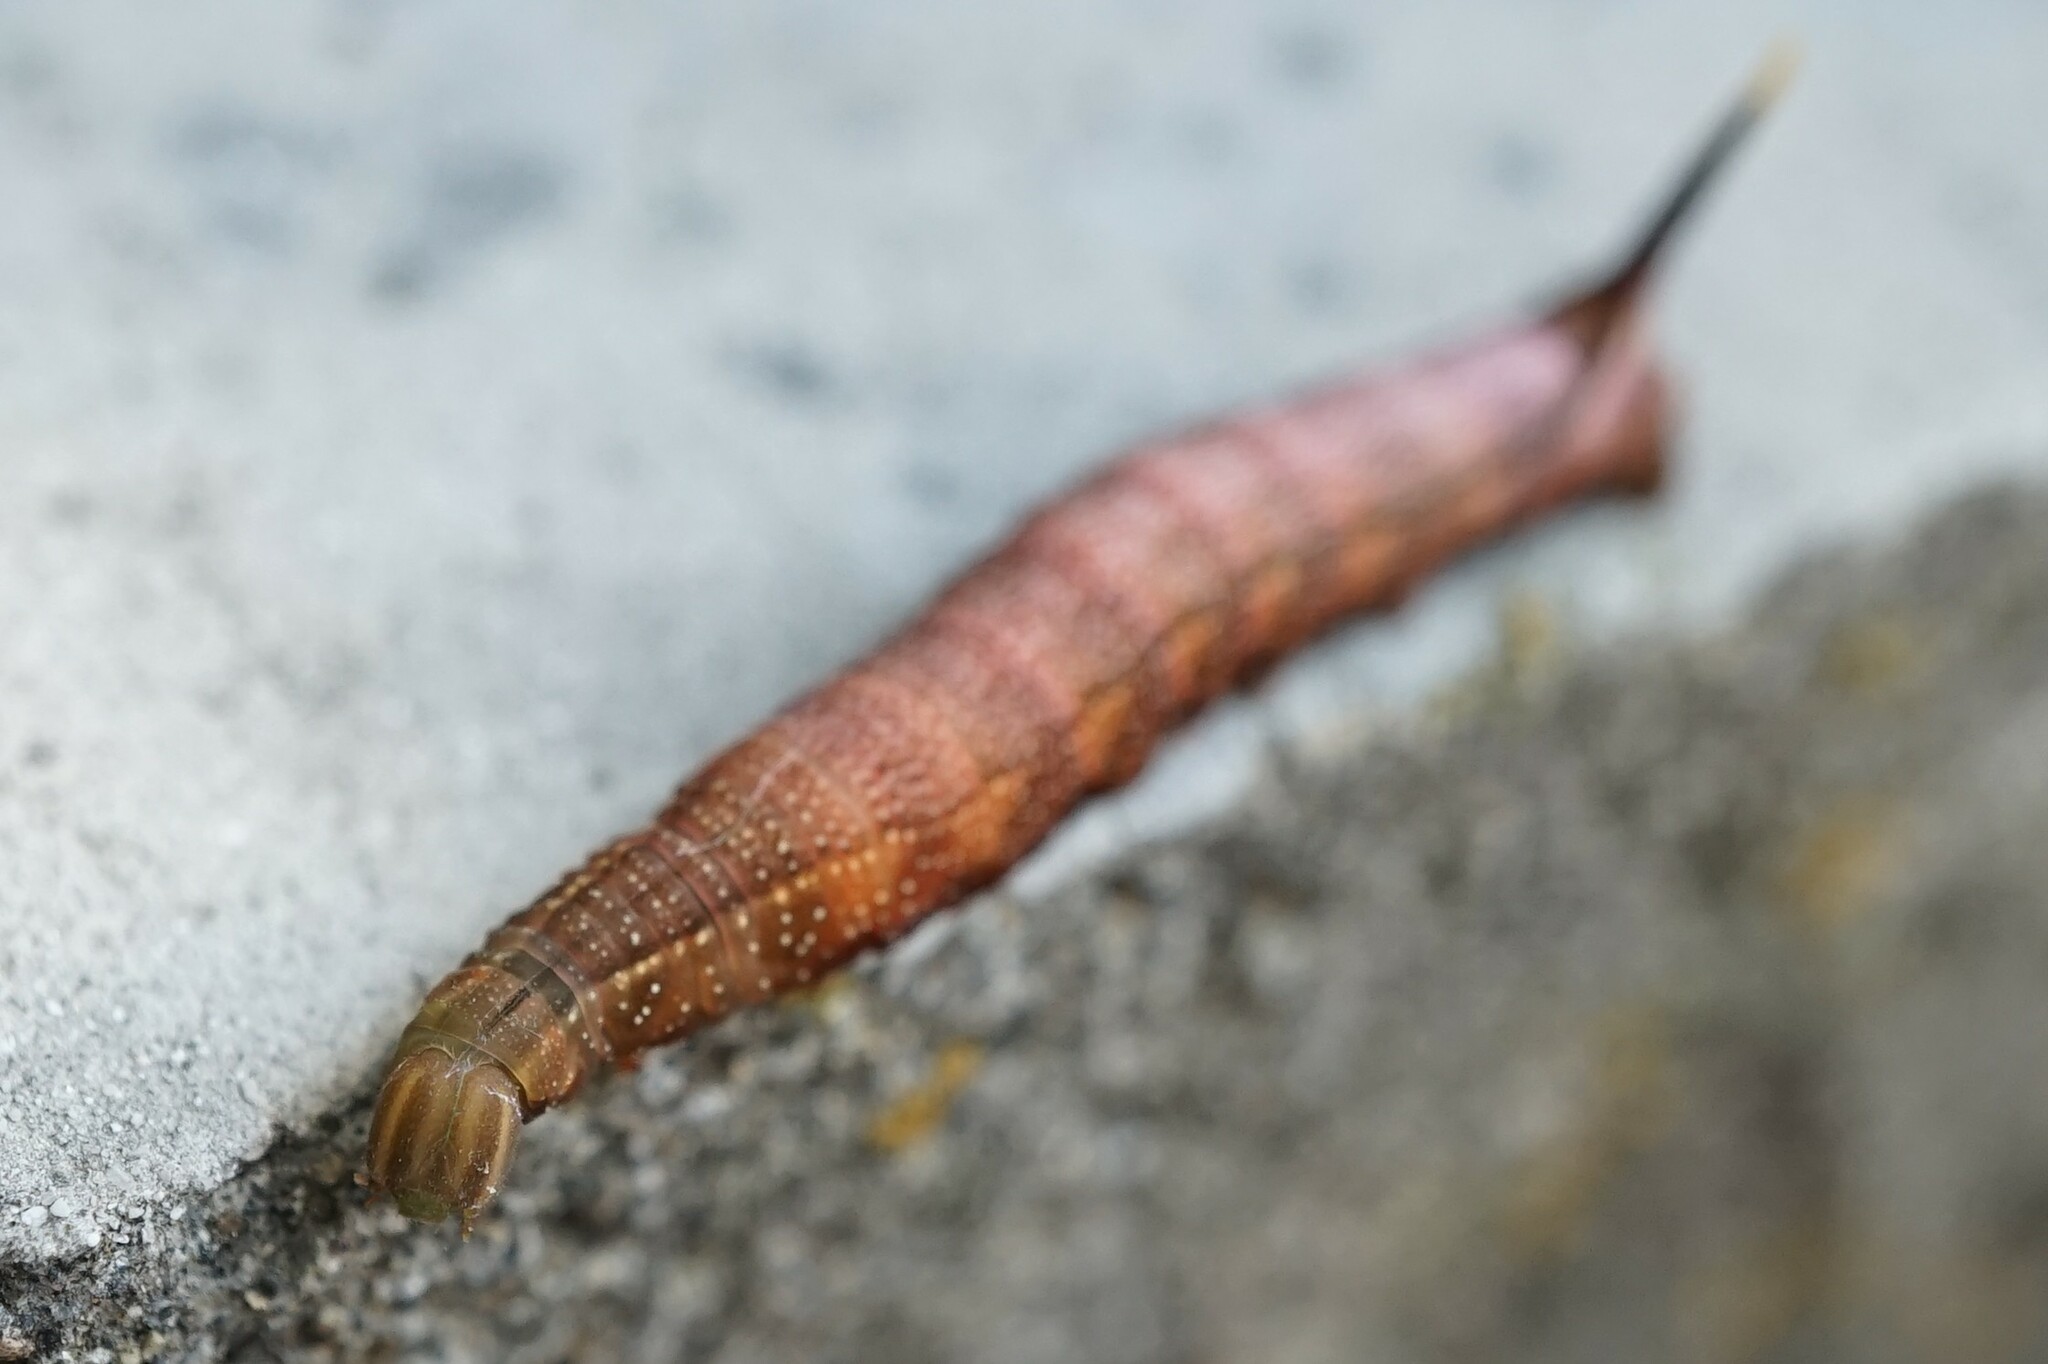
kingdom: Animalia
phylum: Arthropoda
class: Insecta
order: Lepidoptera
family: Sphingidae
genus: Macroglossum
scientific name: Macroglossum pyrrhosticta
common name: Hummingbird hawk moth
